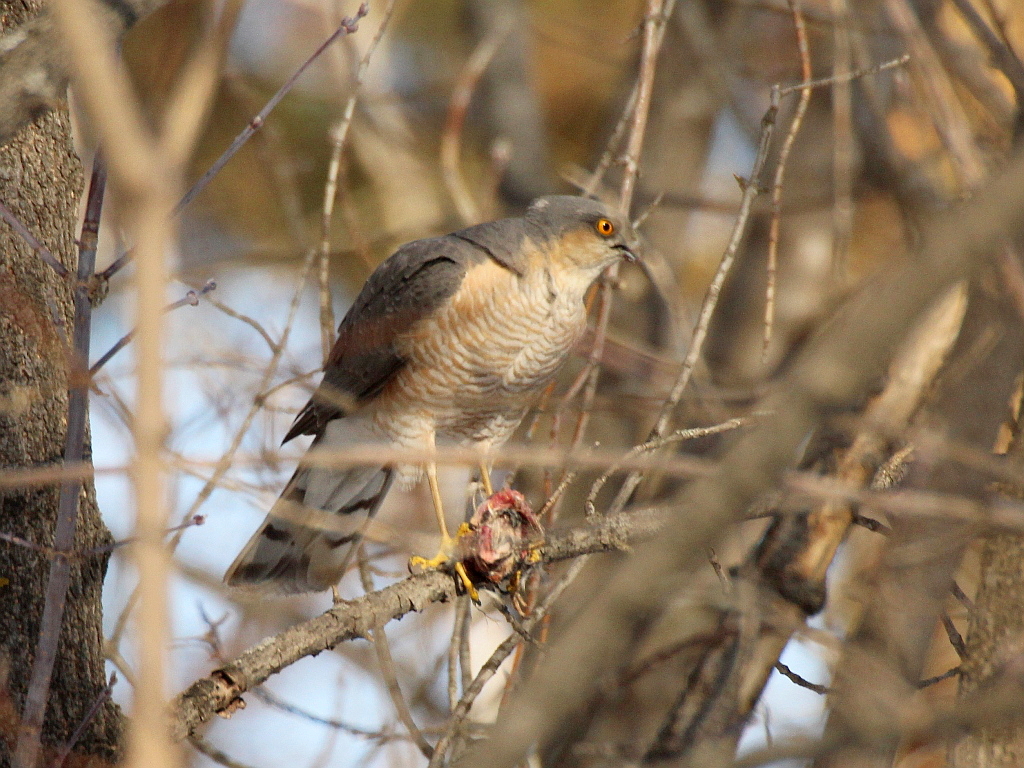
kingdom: Animalia
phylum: Chordata
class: Aves
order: Accipitriformes
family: Accipitridae
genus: Accipiter
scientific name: Accipiter nisus
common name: Eurasian sparrowhawk
